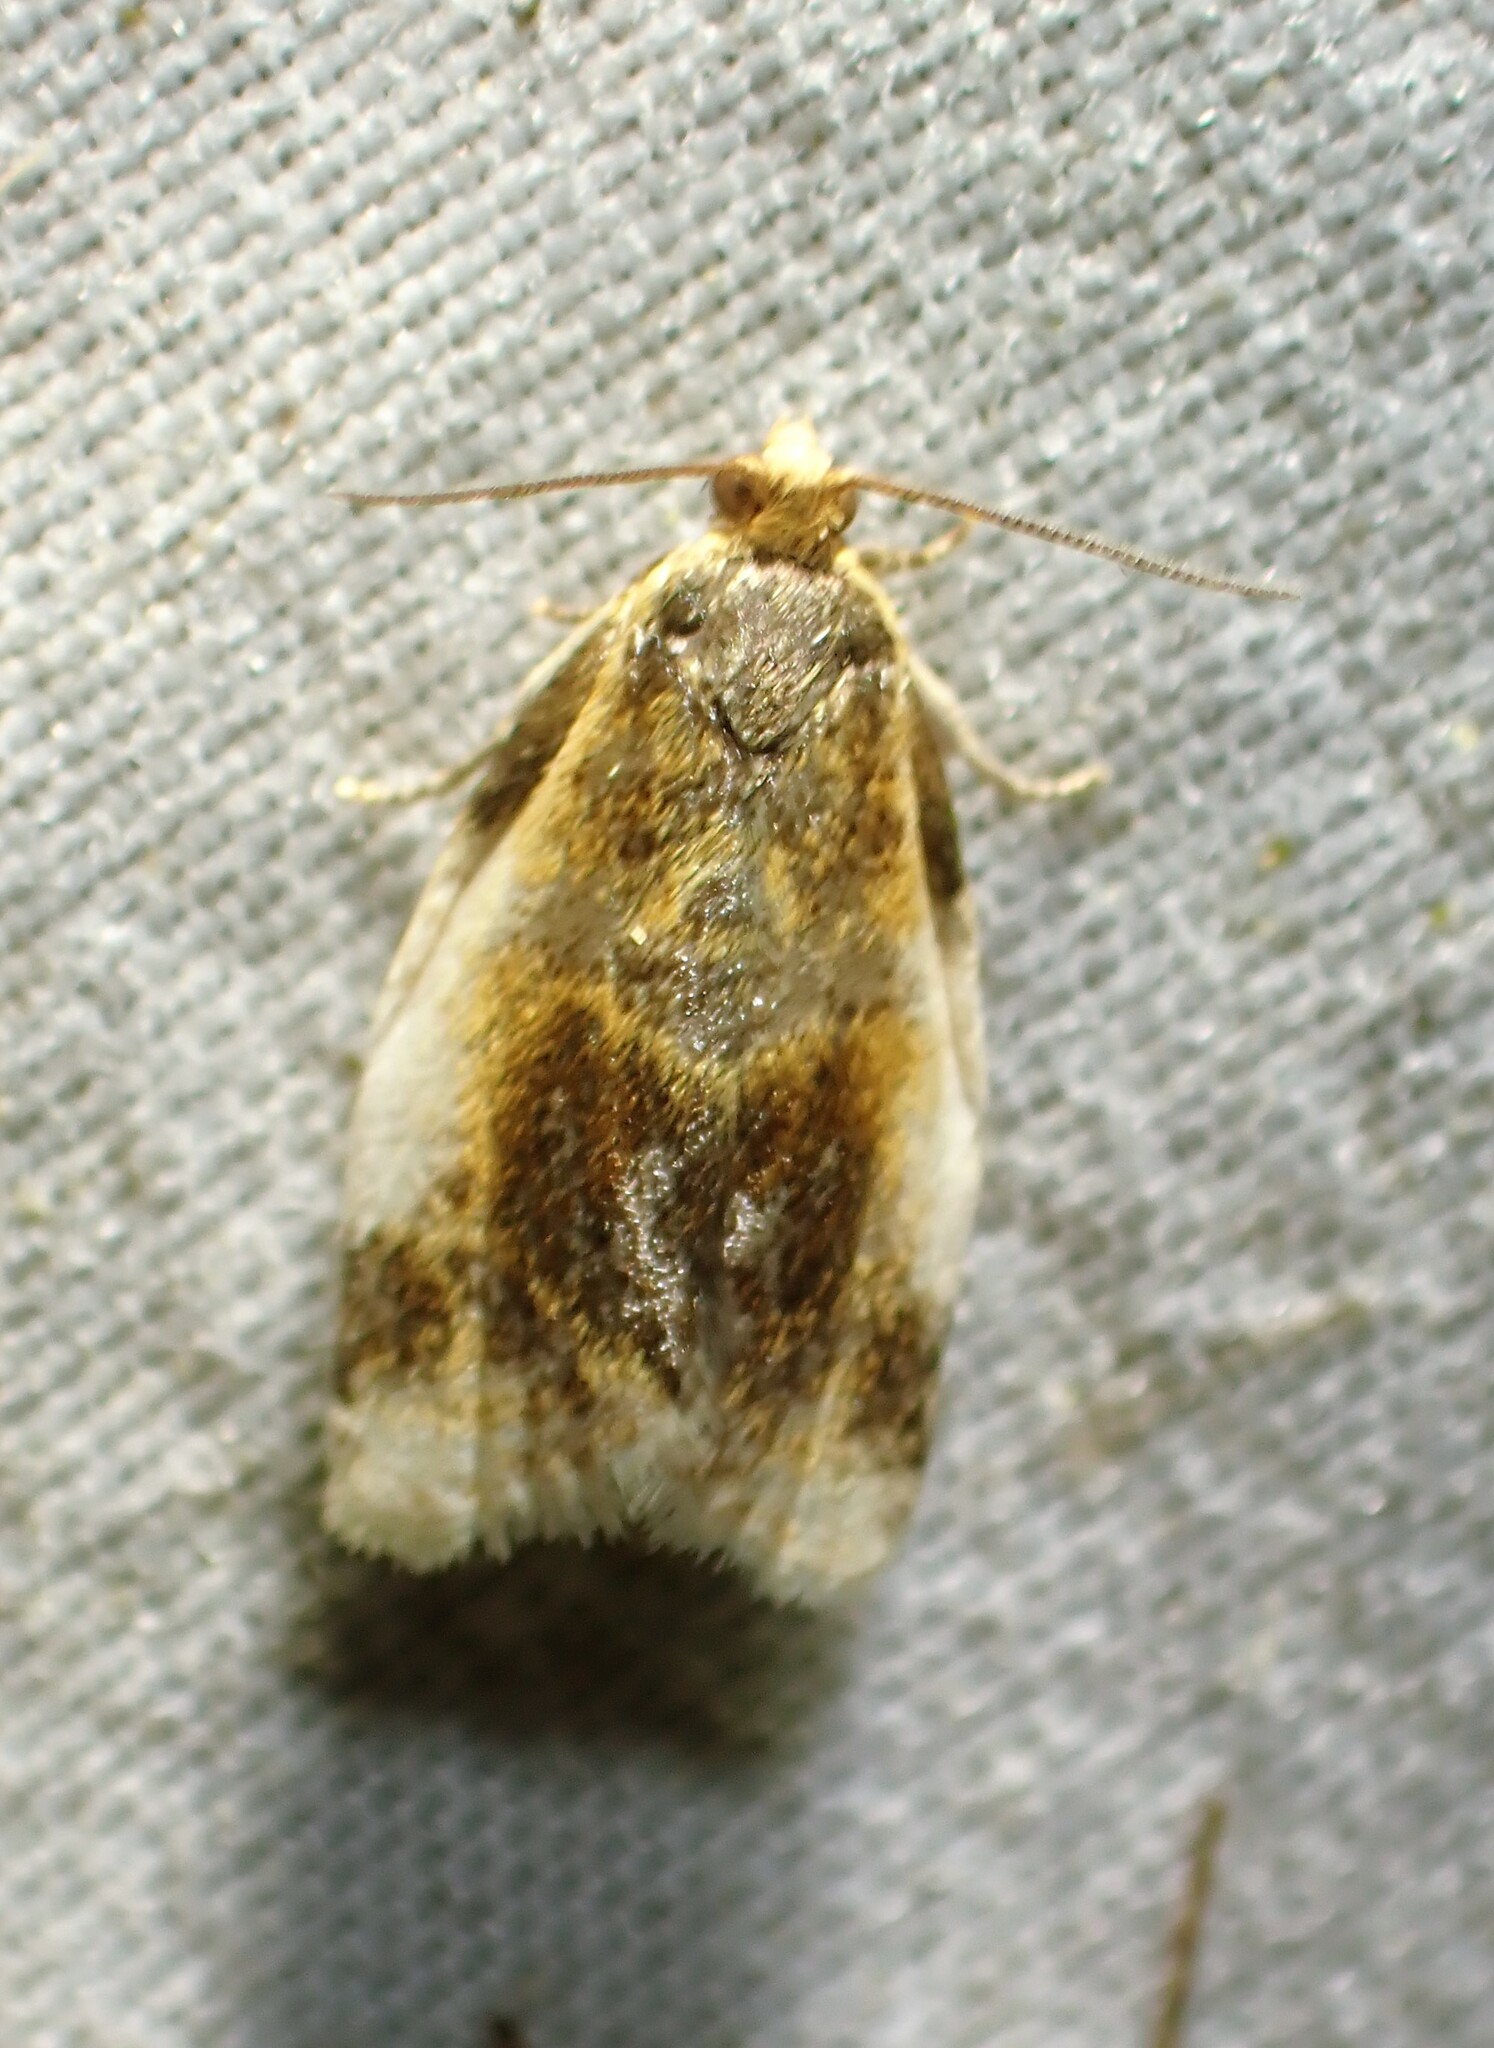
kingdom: Animalia
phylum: Arthropoda
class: Insecta
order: Lepidoptera
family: Tortricidae
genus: Clepsis
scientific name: Clepsis melaleucanus
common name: American apple tortrix
